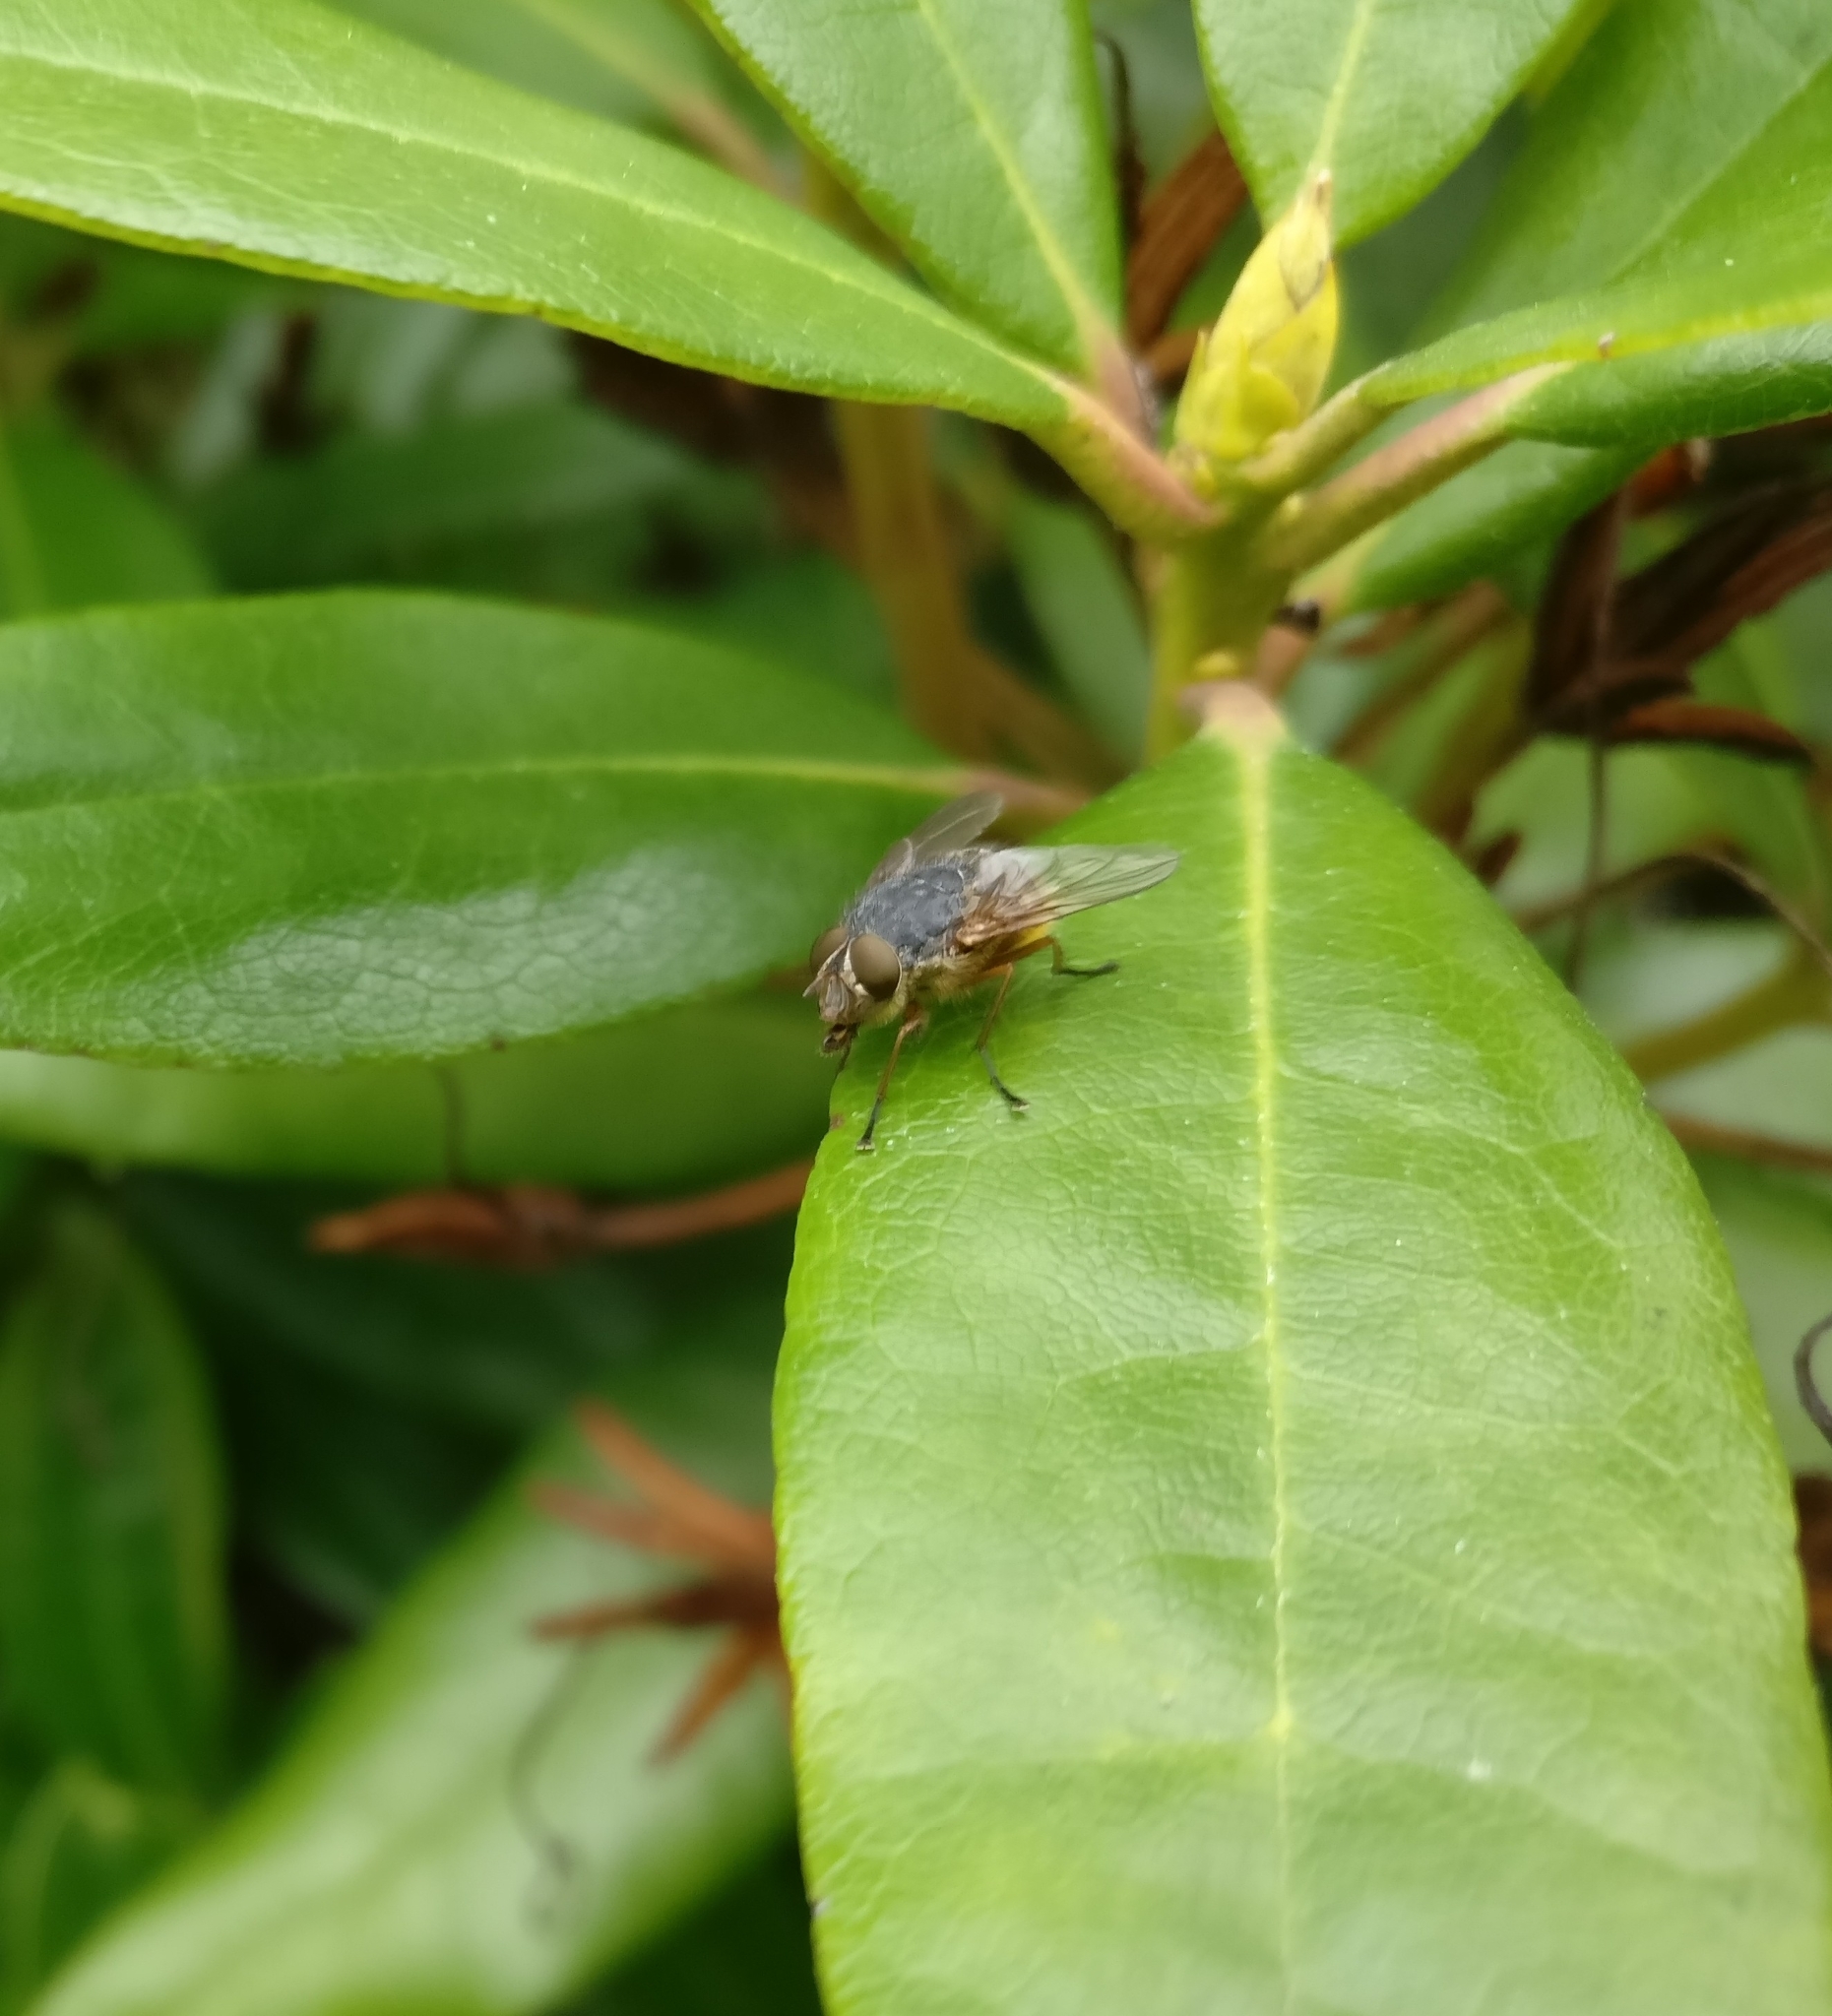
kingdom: Animalia
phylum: Arthropoda
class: Insecta
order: Diptera
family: Calliphoridae
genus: Calliphora
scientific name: Calliphora
